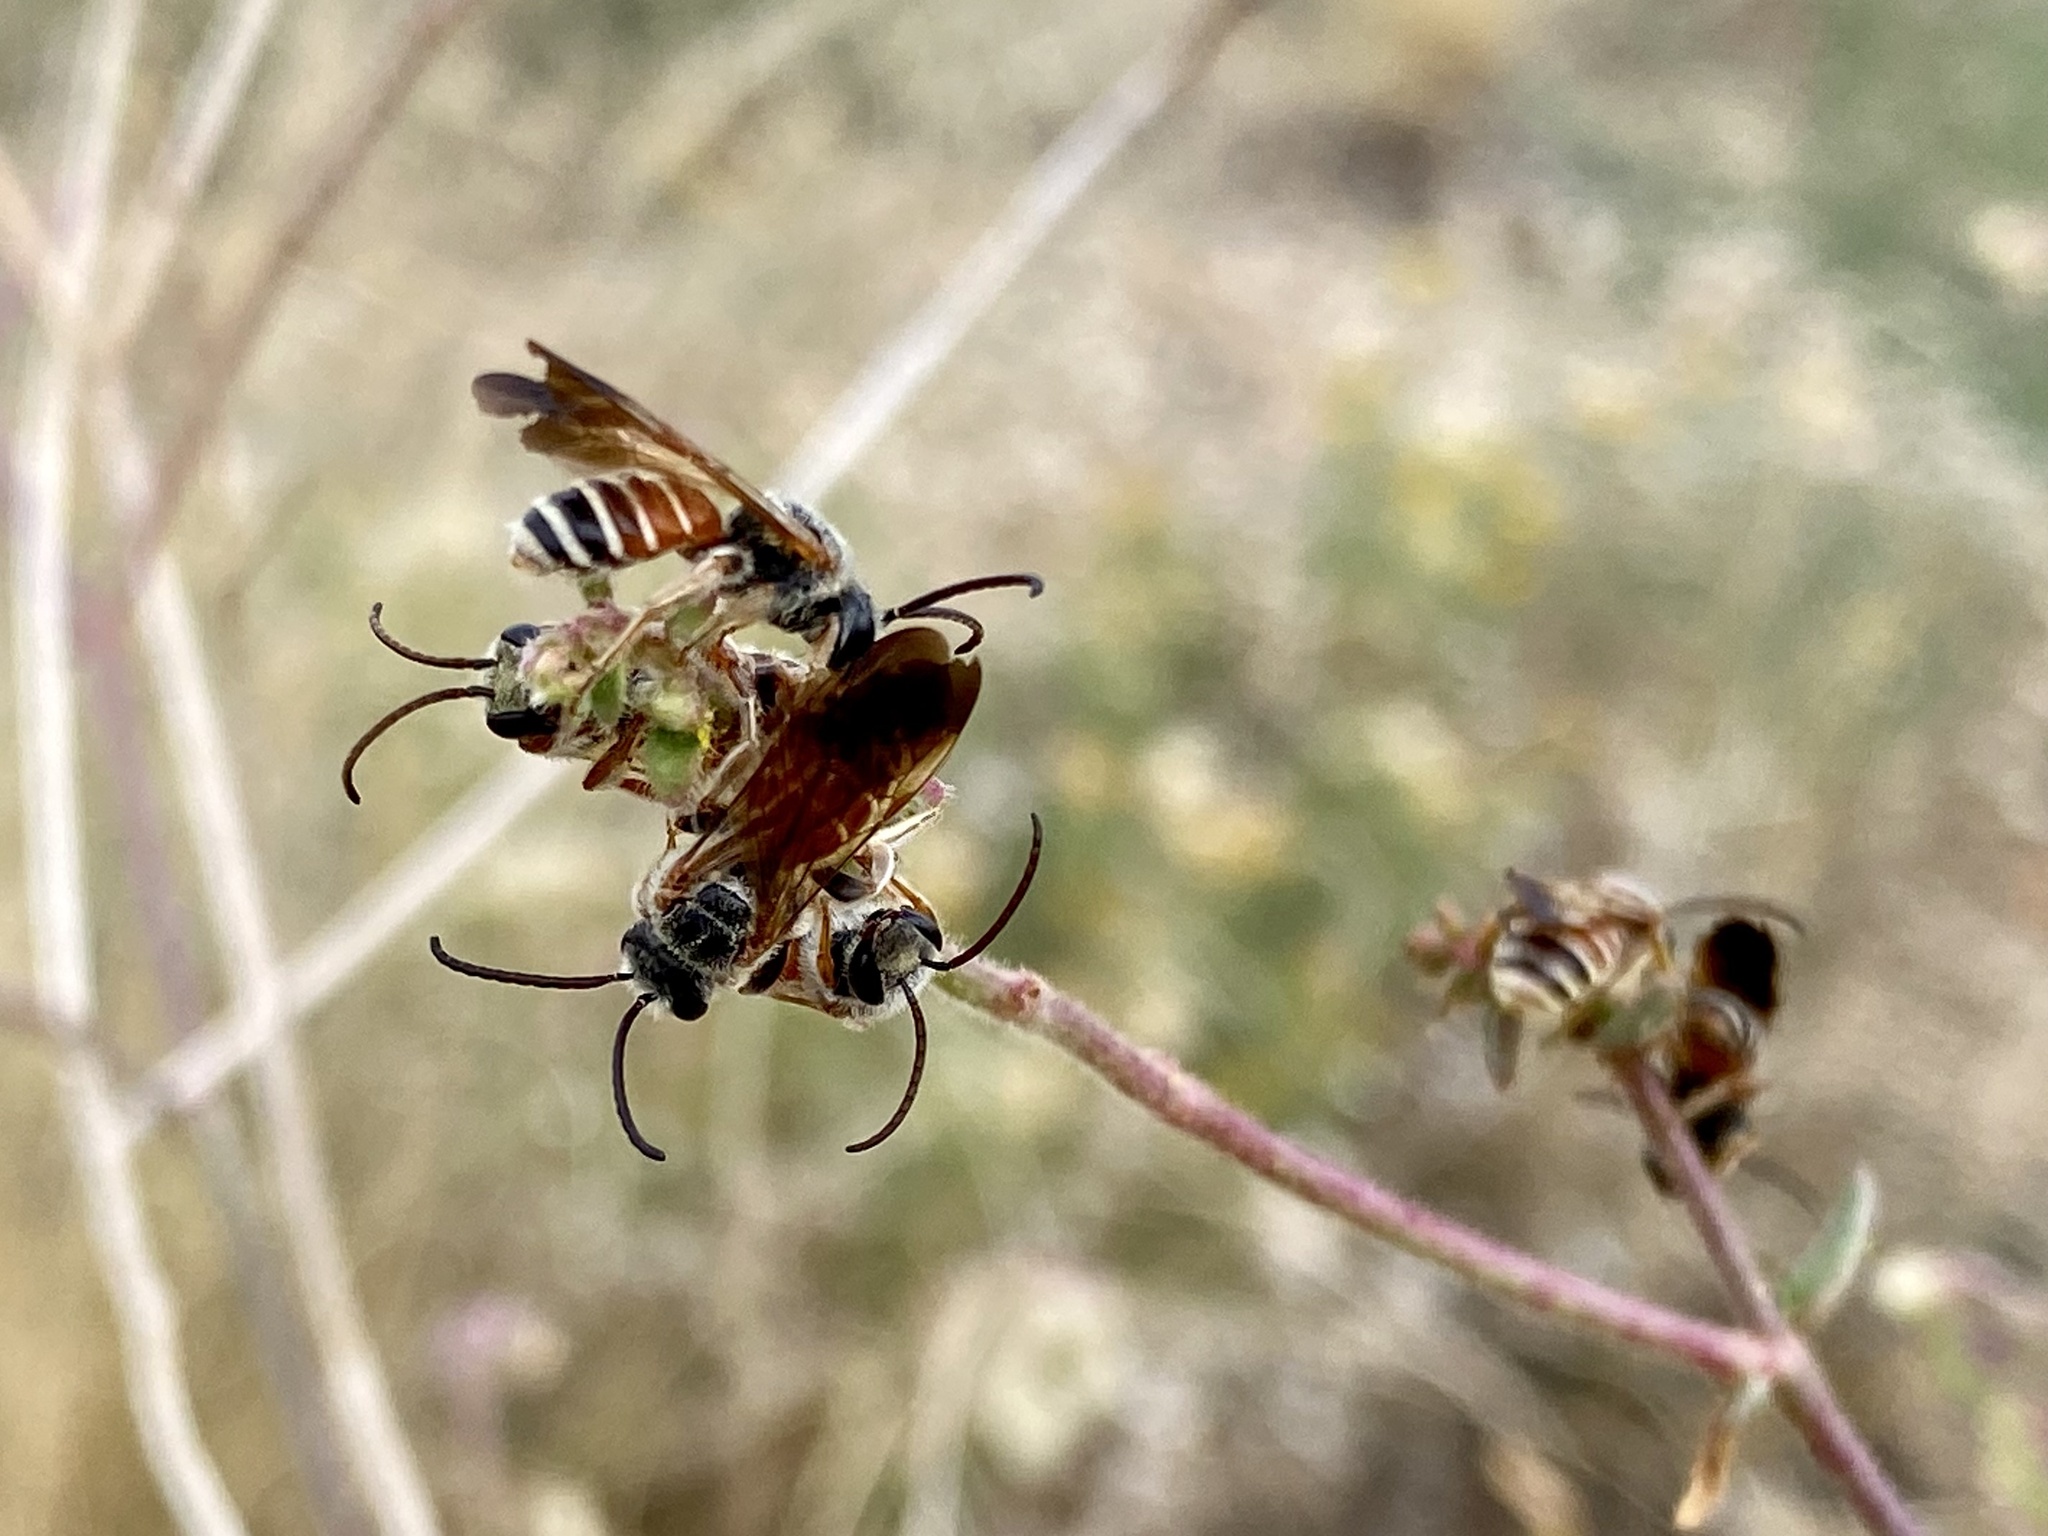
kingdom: Animalia
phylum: Arthropoda
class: Insecta
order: Hymenoptera
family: Halictidae
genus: Dieunomia
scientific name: Dieunomia nevadensis
